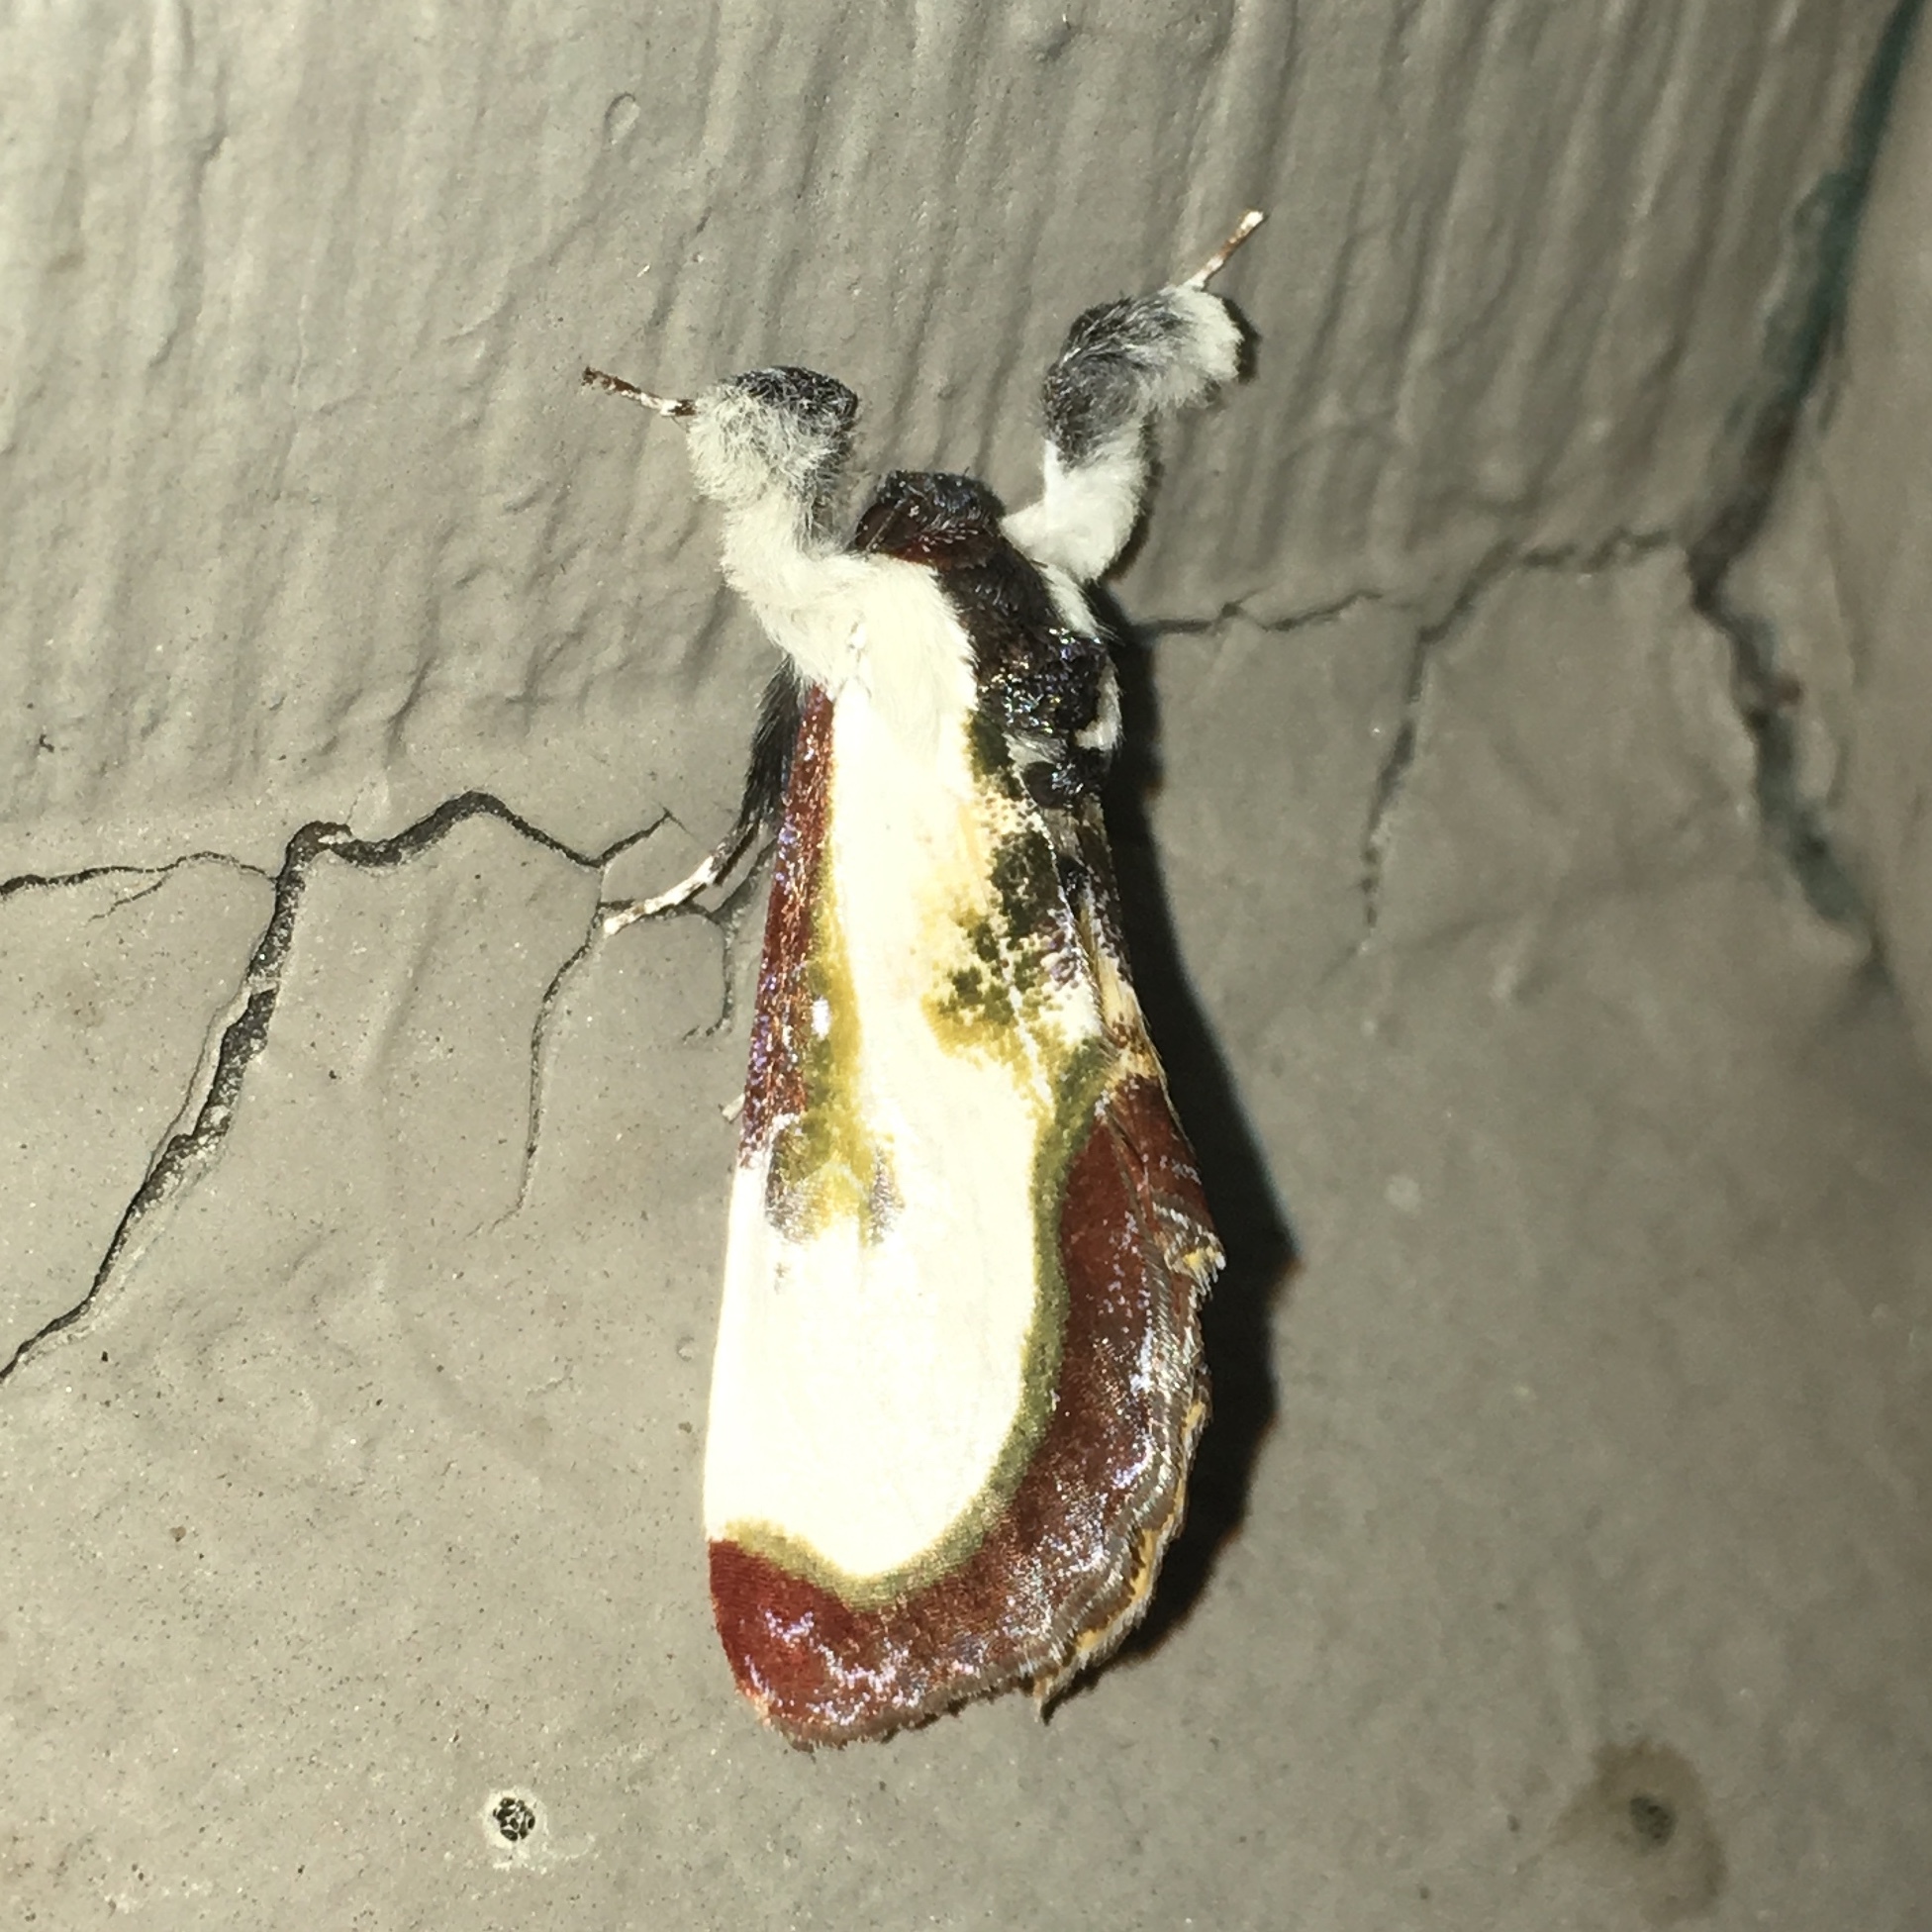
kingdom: Animalia
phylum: Arthropoda
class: Insecta
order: Lepidoptera
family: Noctuidae
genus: Eudryas
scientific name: Eudryas grata
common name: Beautiful wood-nymph
